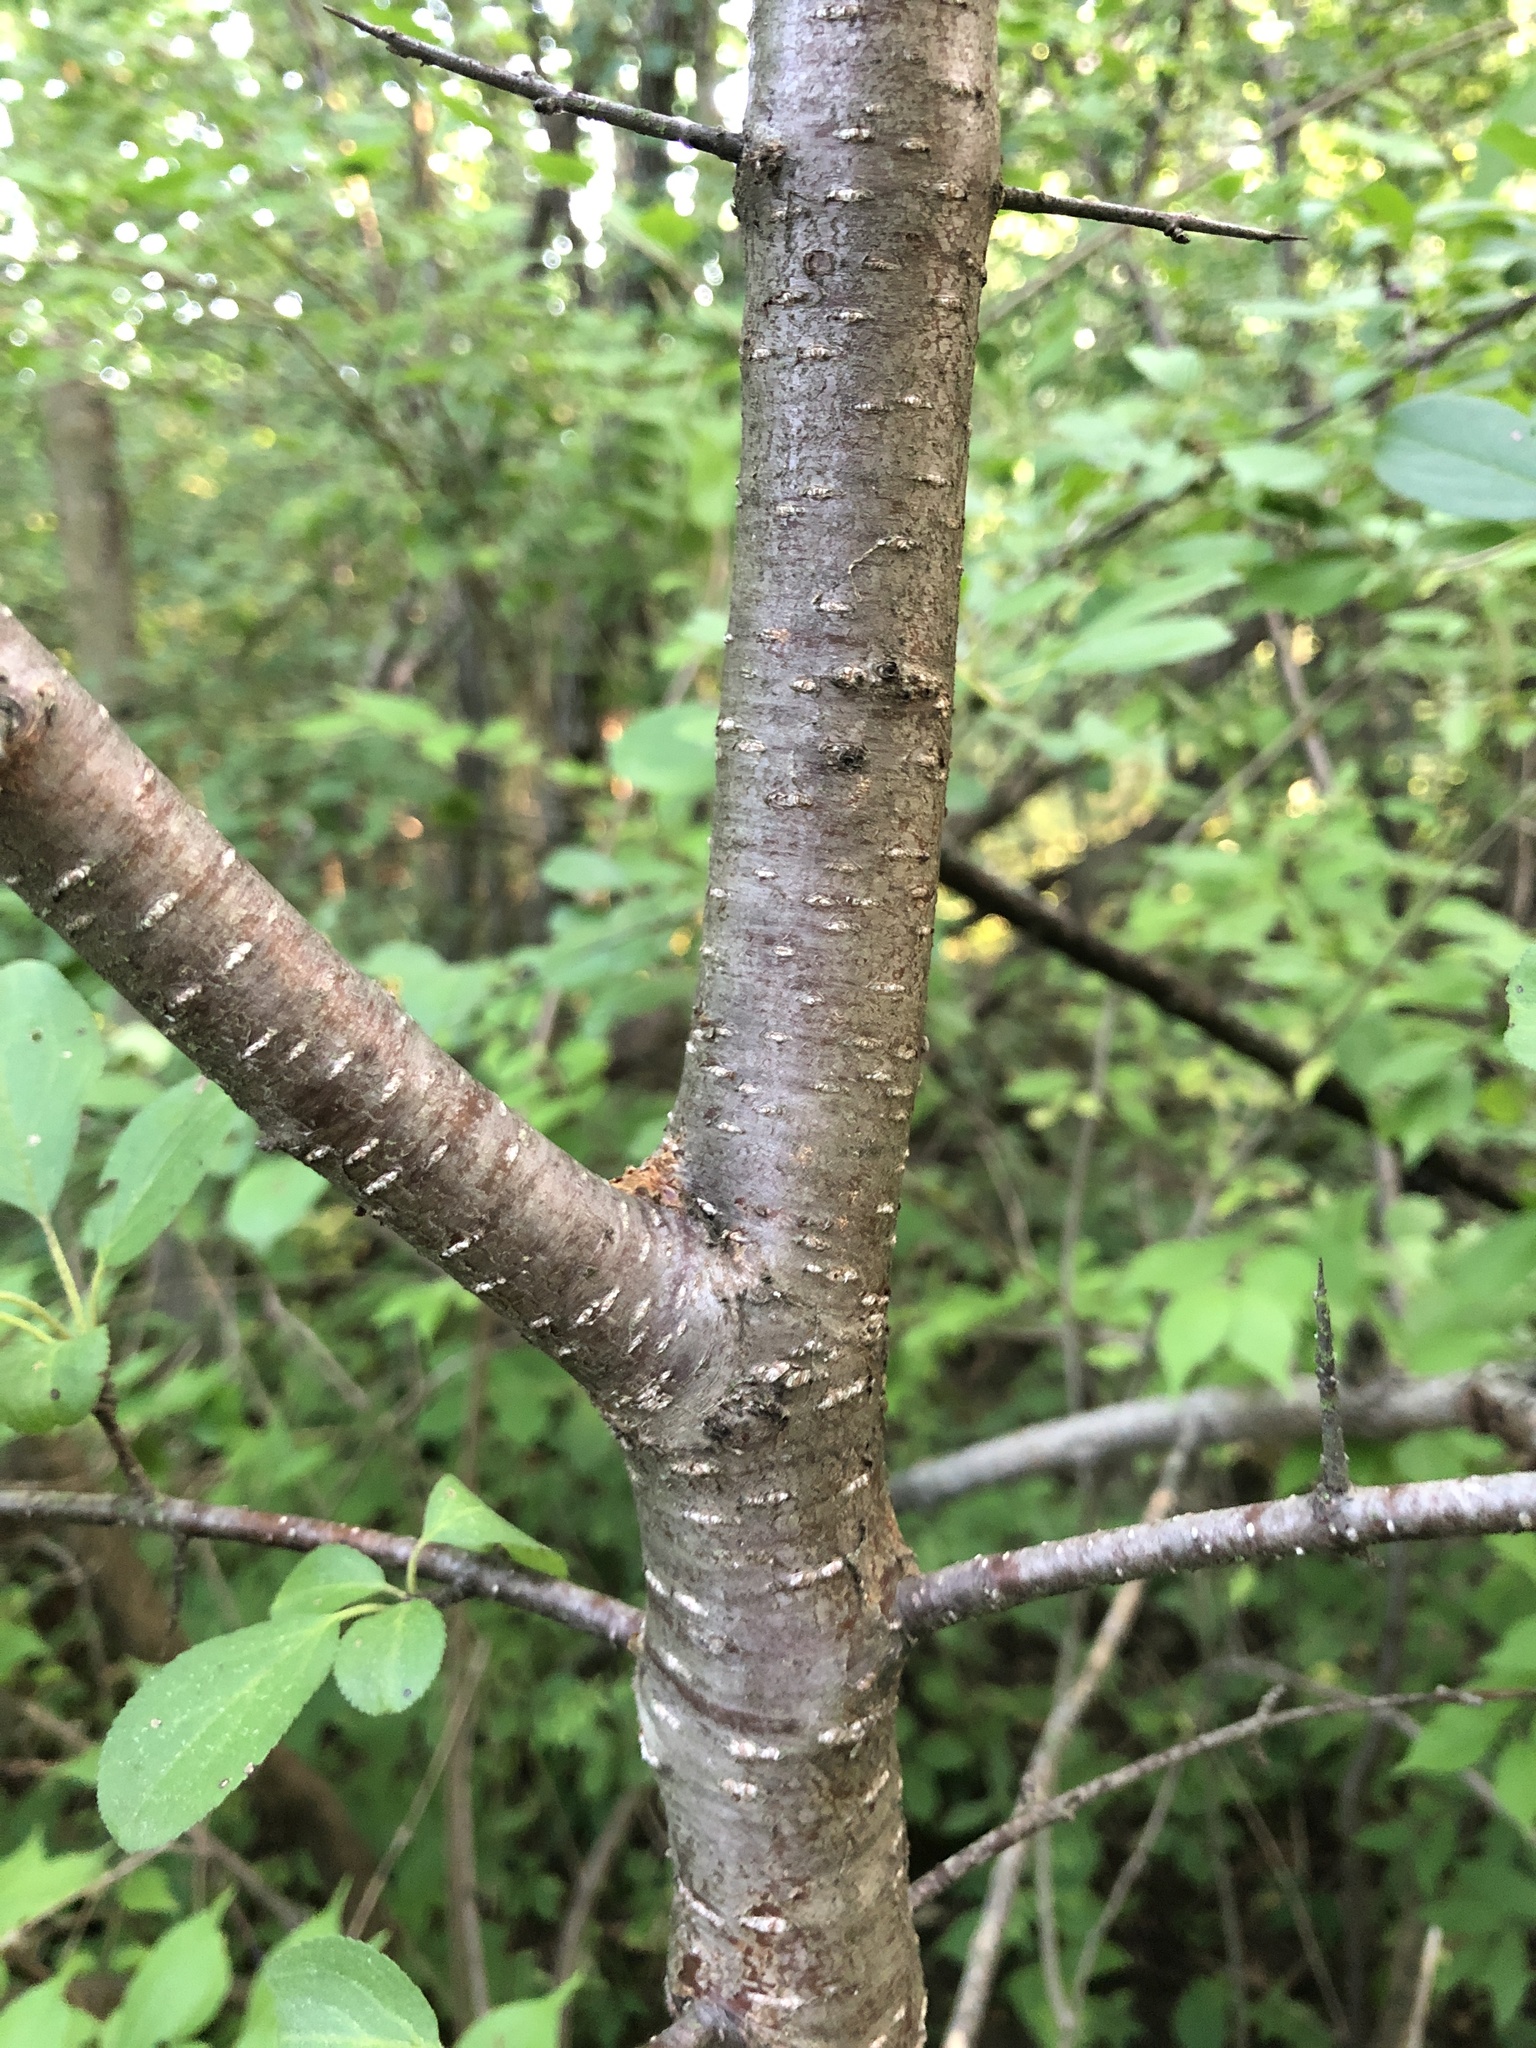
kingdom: Plantae
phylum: Tracheophyta
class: Magnoliopsida
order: Rosales
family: Rhamnaceae
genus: Rhamnus
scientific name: Rhamnus cathartica
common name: Common buckthorn
